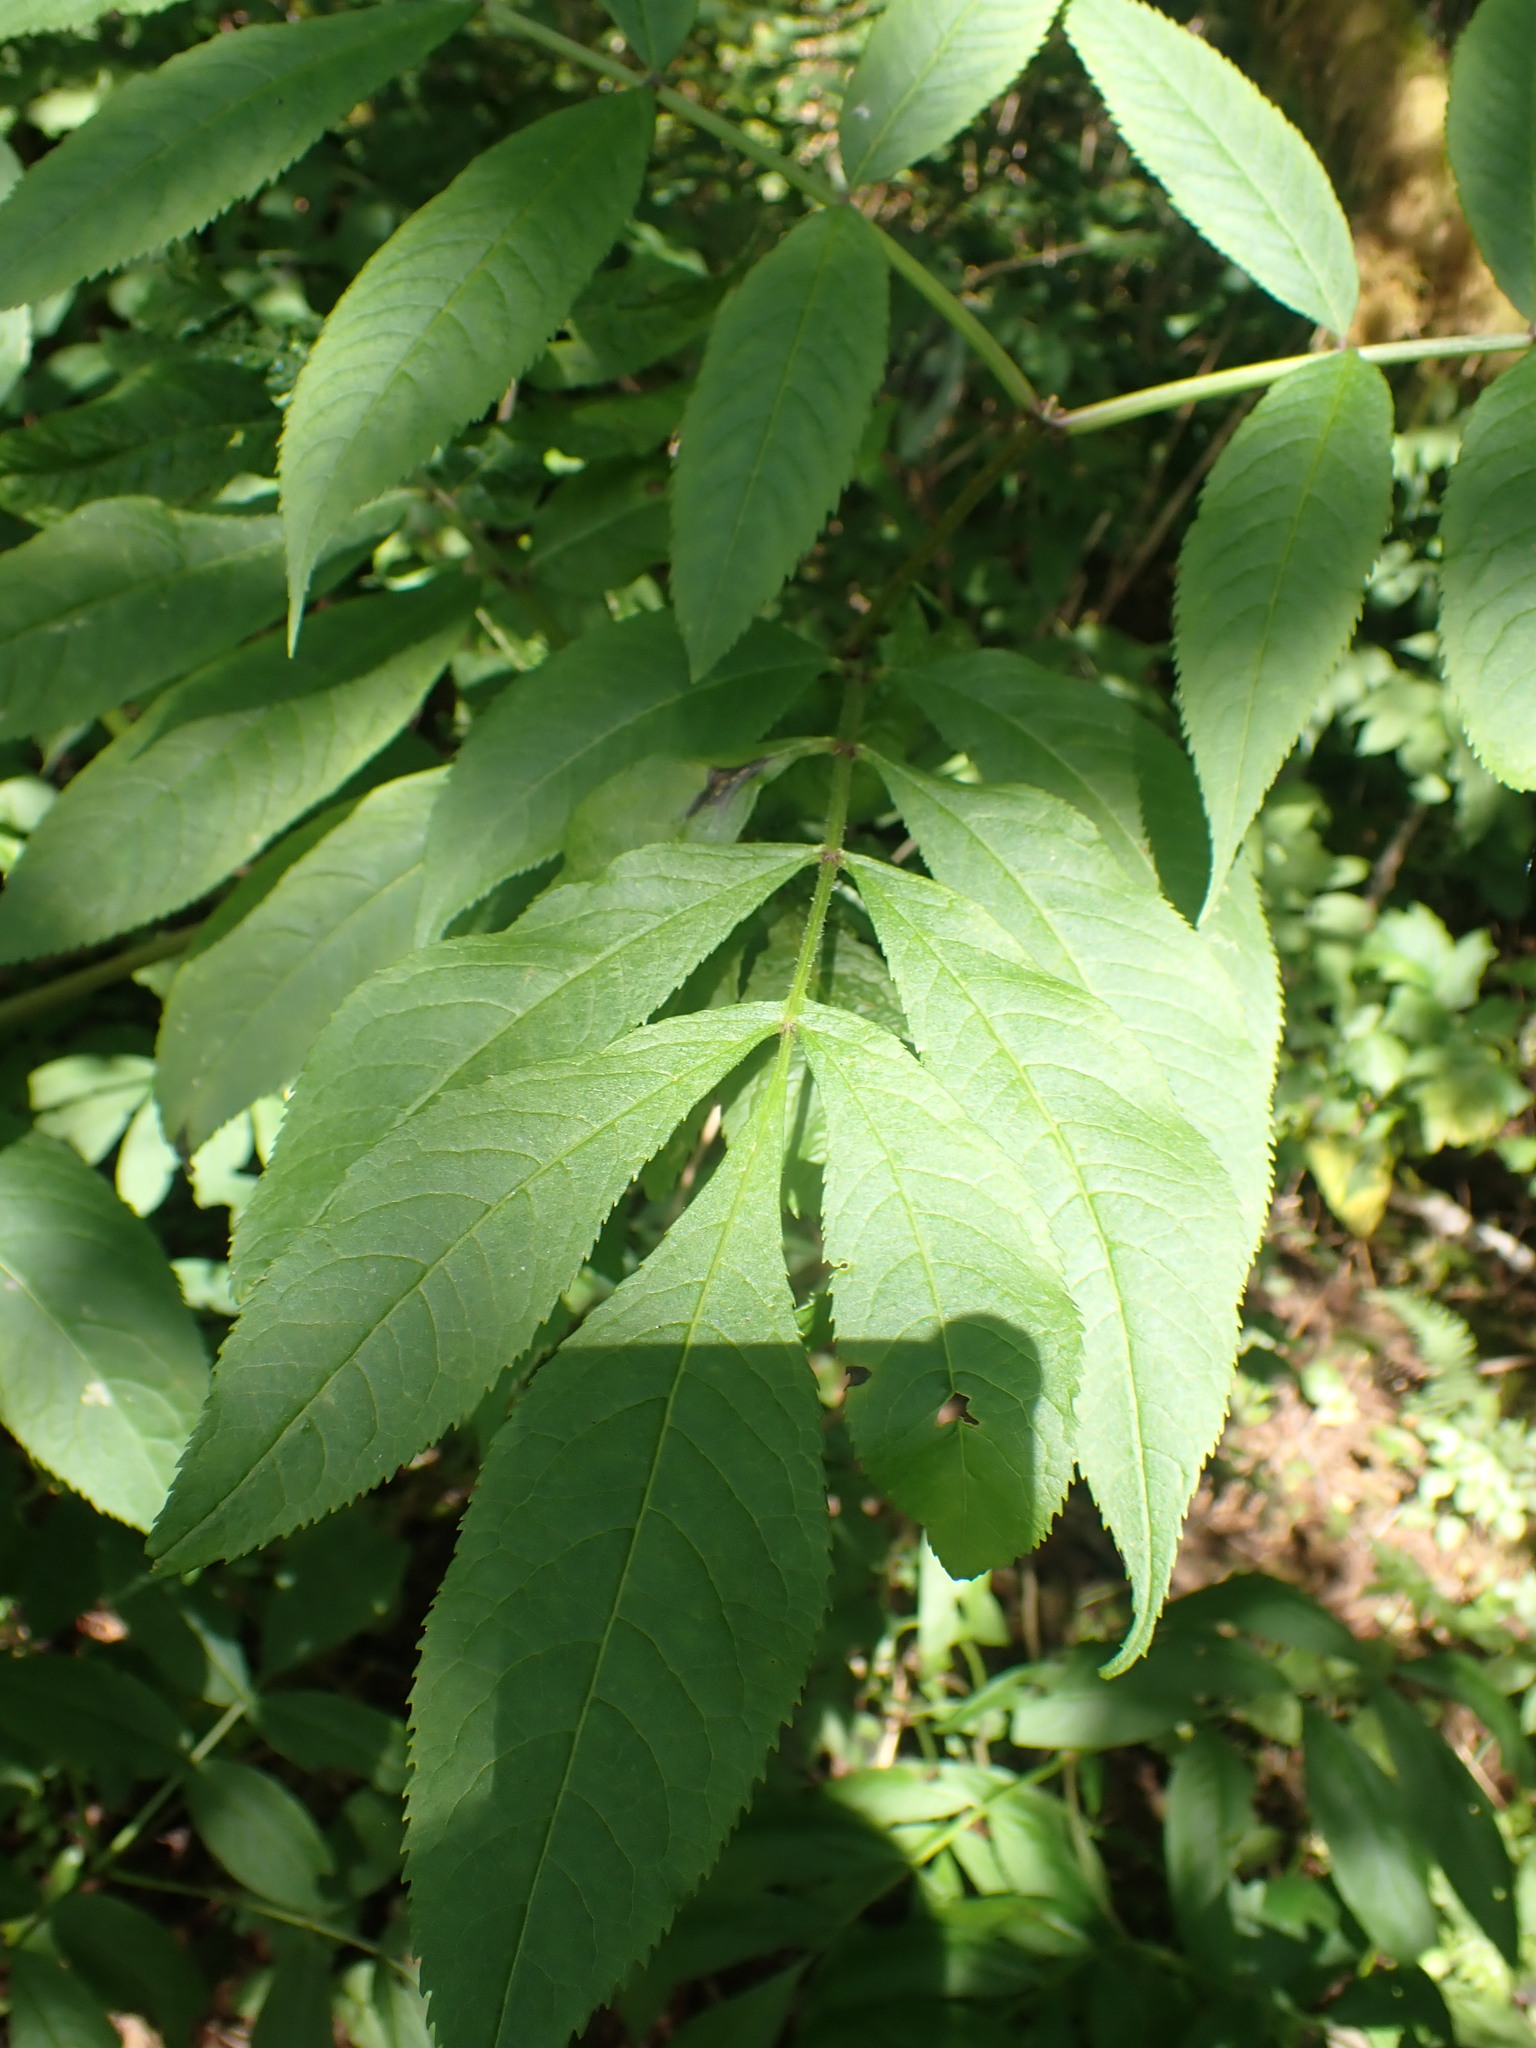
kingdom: Plantae
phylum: Tracheophyta
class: Magnoliopsida
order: Dipsacales
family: Viburnaceae
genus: Sambucus
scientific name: Sambucus racemosa
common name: Red-berried elder
